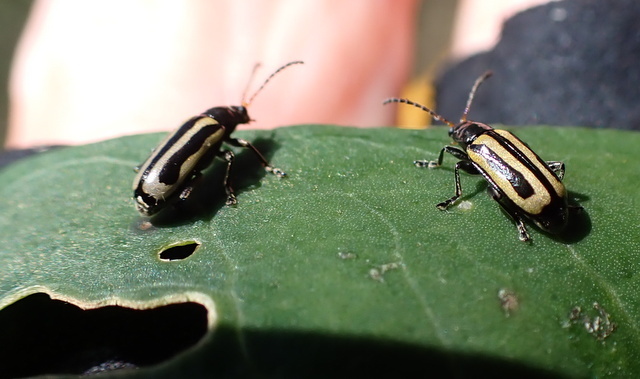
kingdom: Animalia
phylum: Arthropoda
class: Insecta
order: Coleoptera
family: Chrysomelidae
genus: Agasicles
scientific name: Agasicles hygrophila
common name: Alligatorweed flea beetle
